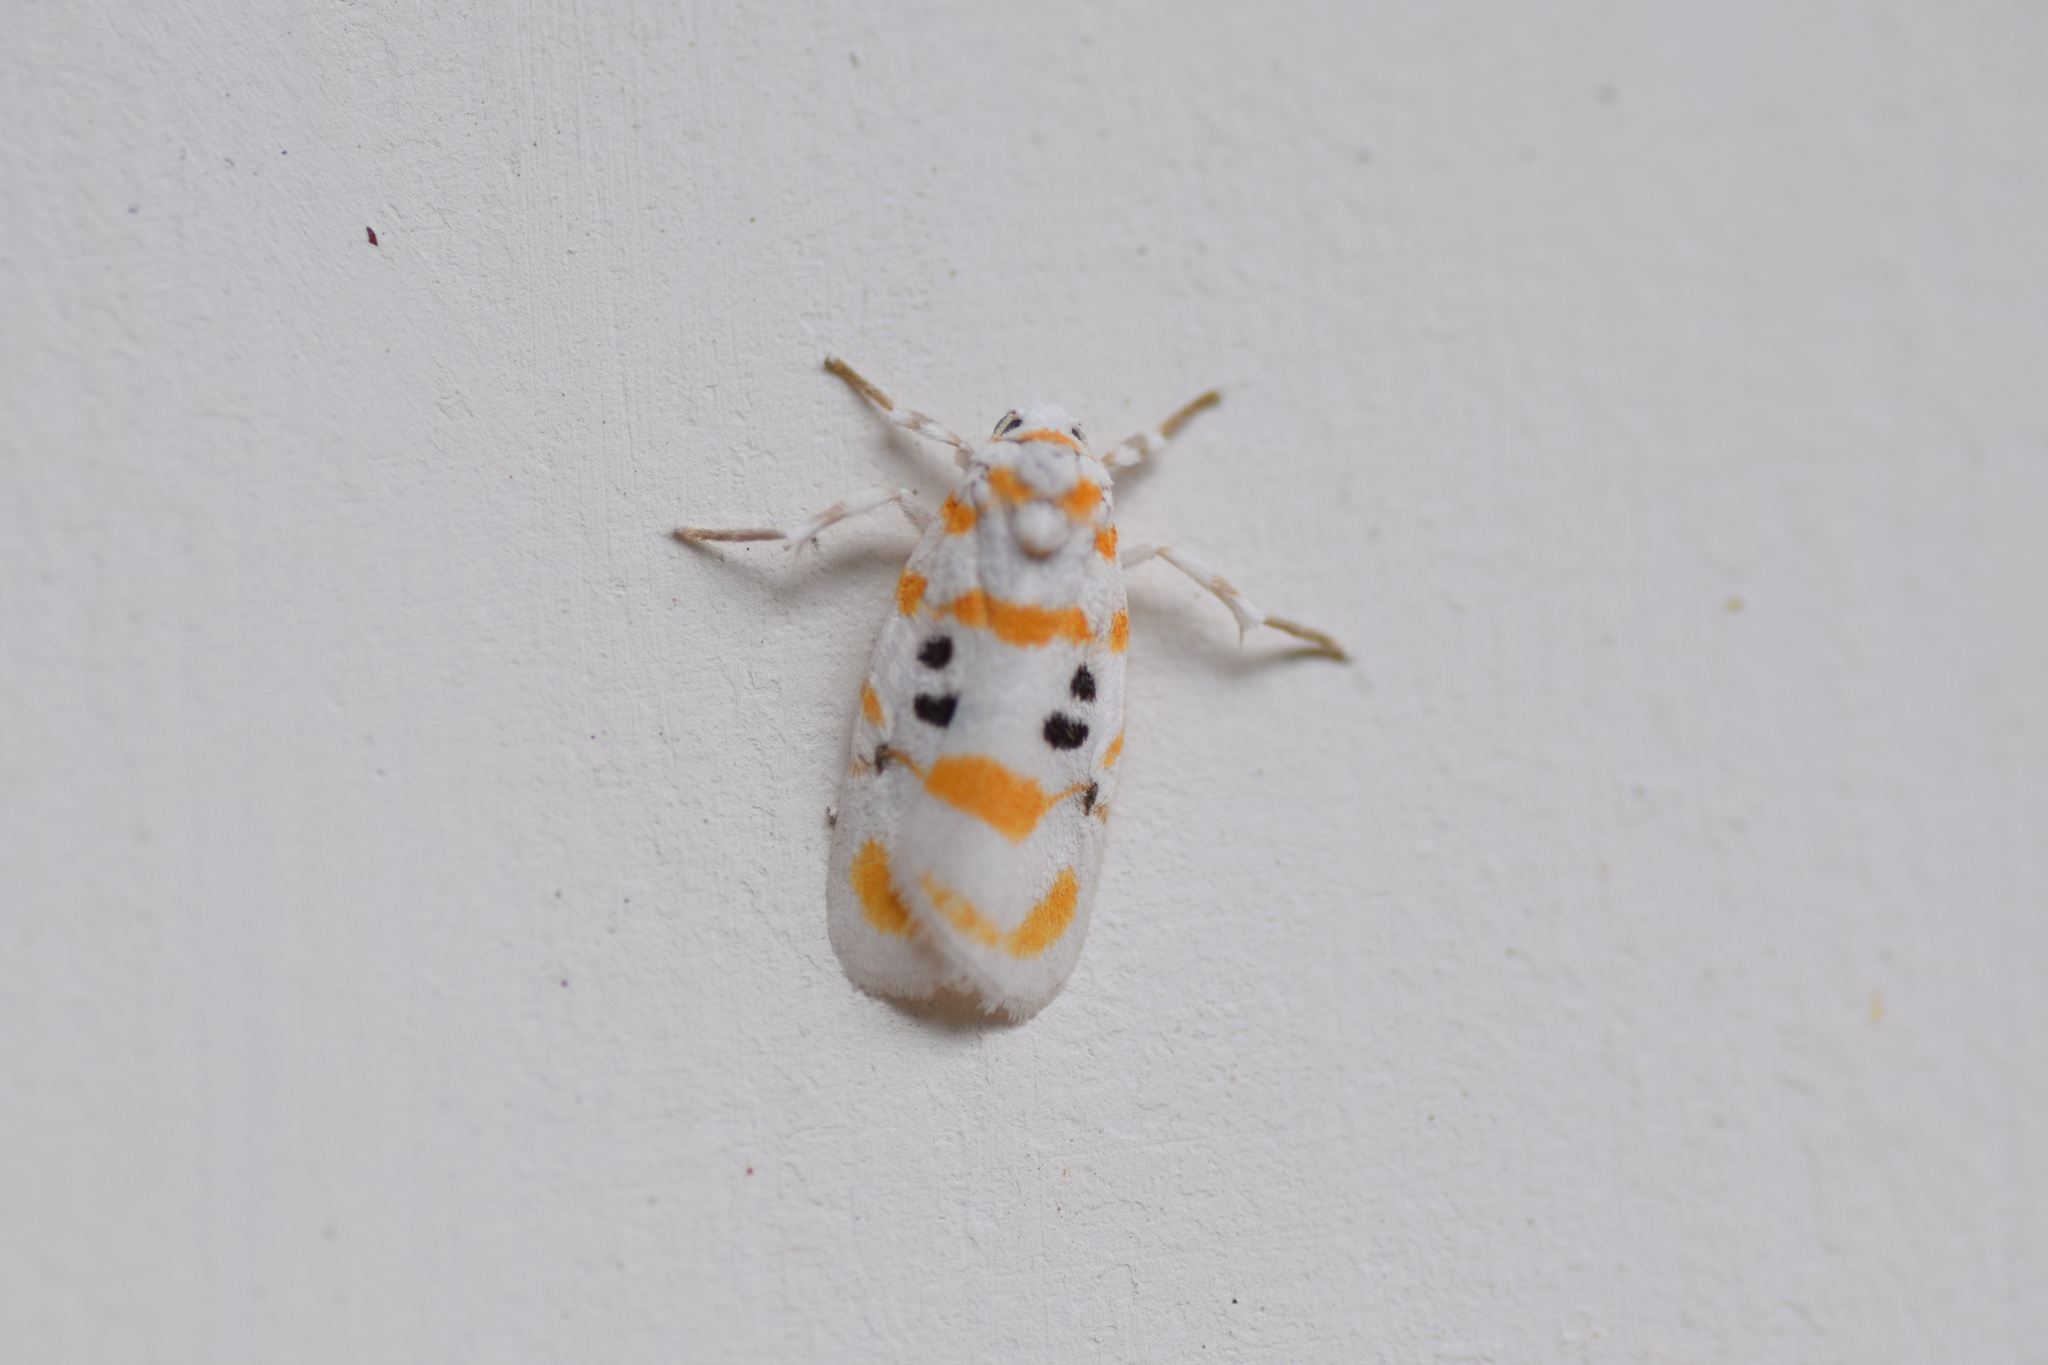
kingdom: Animalia
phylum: Arthropoda
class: Insecta
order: Lepidoptera
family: Erebidae
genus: Cyana
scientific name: Cyana atlanteia
